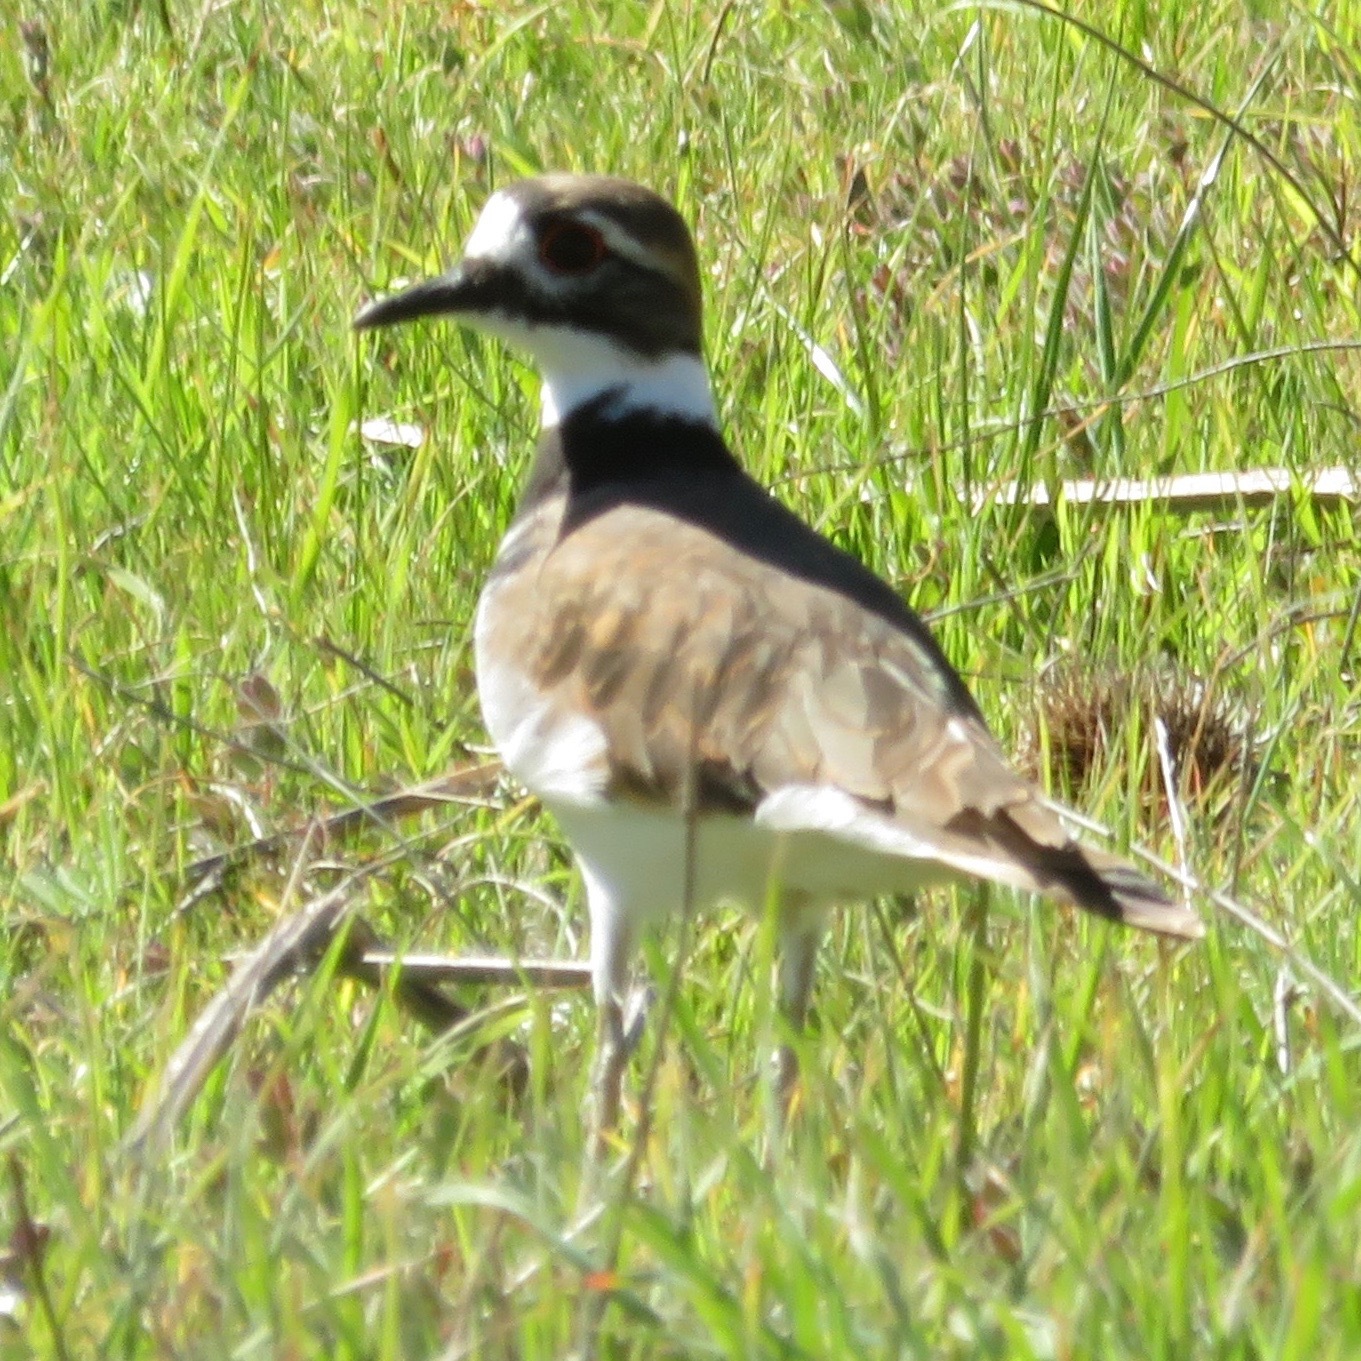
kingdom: Animalia
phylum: Chordata
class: Aves
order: Charadriiformes
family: Charadriidae
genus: Charadrius
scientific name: Charadrius vociferus
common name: Killdeer
